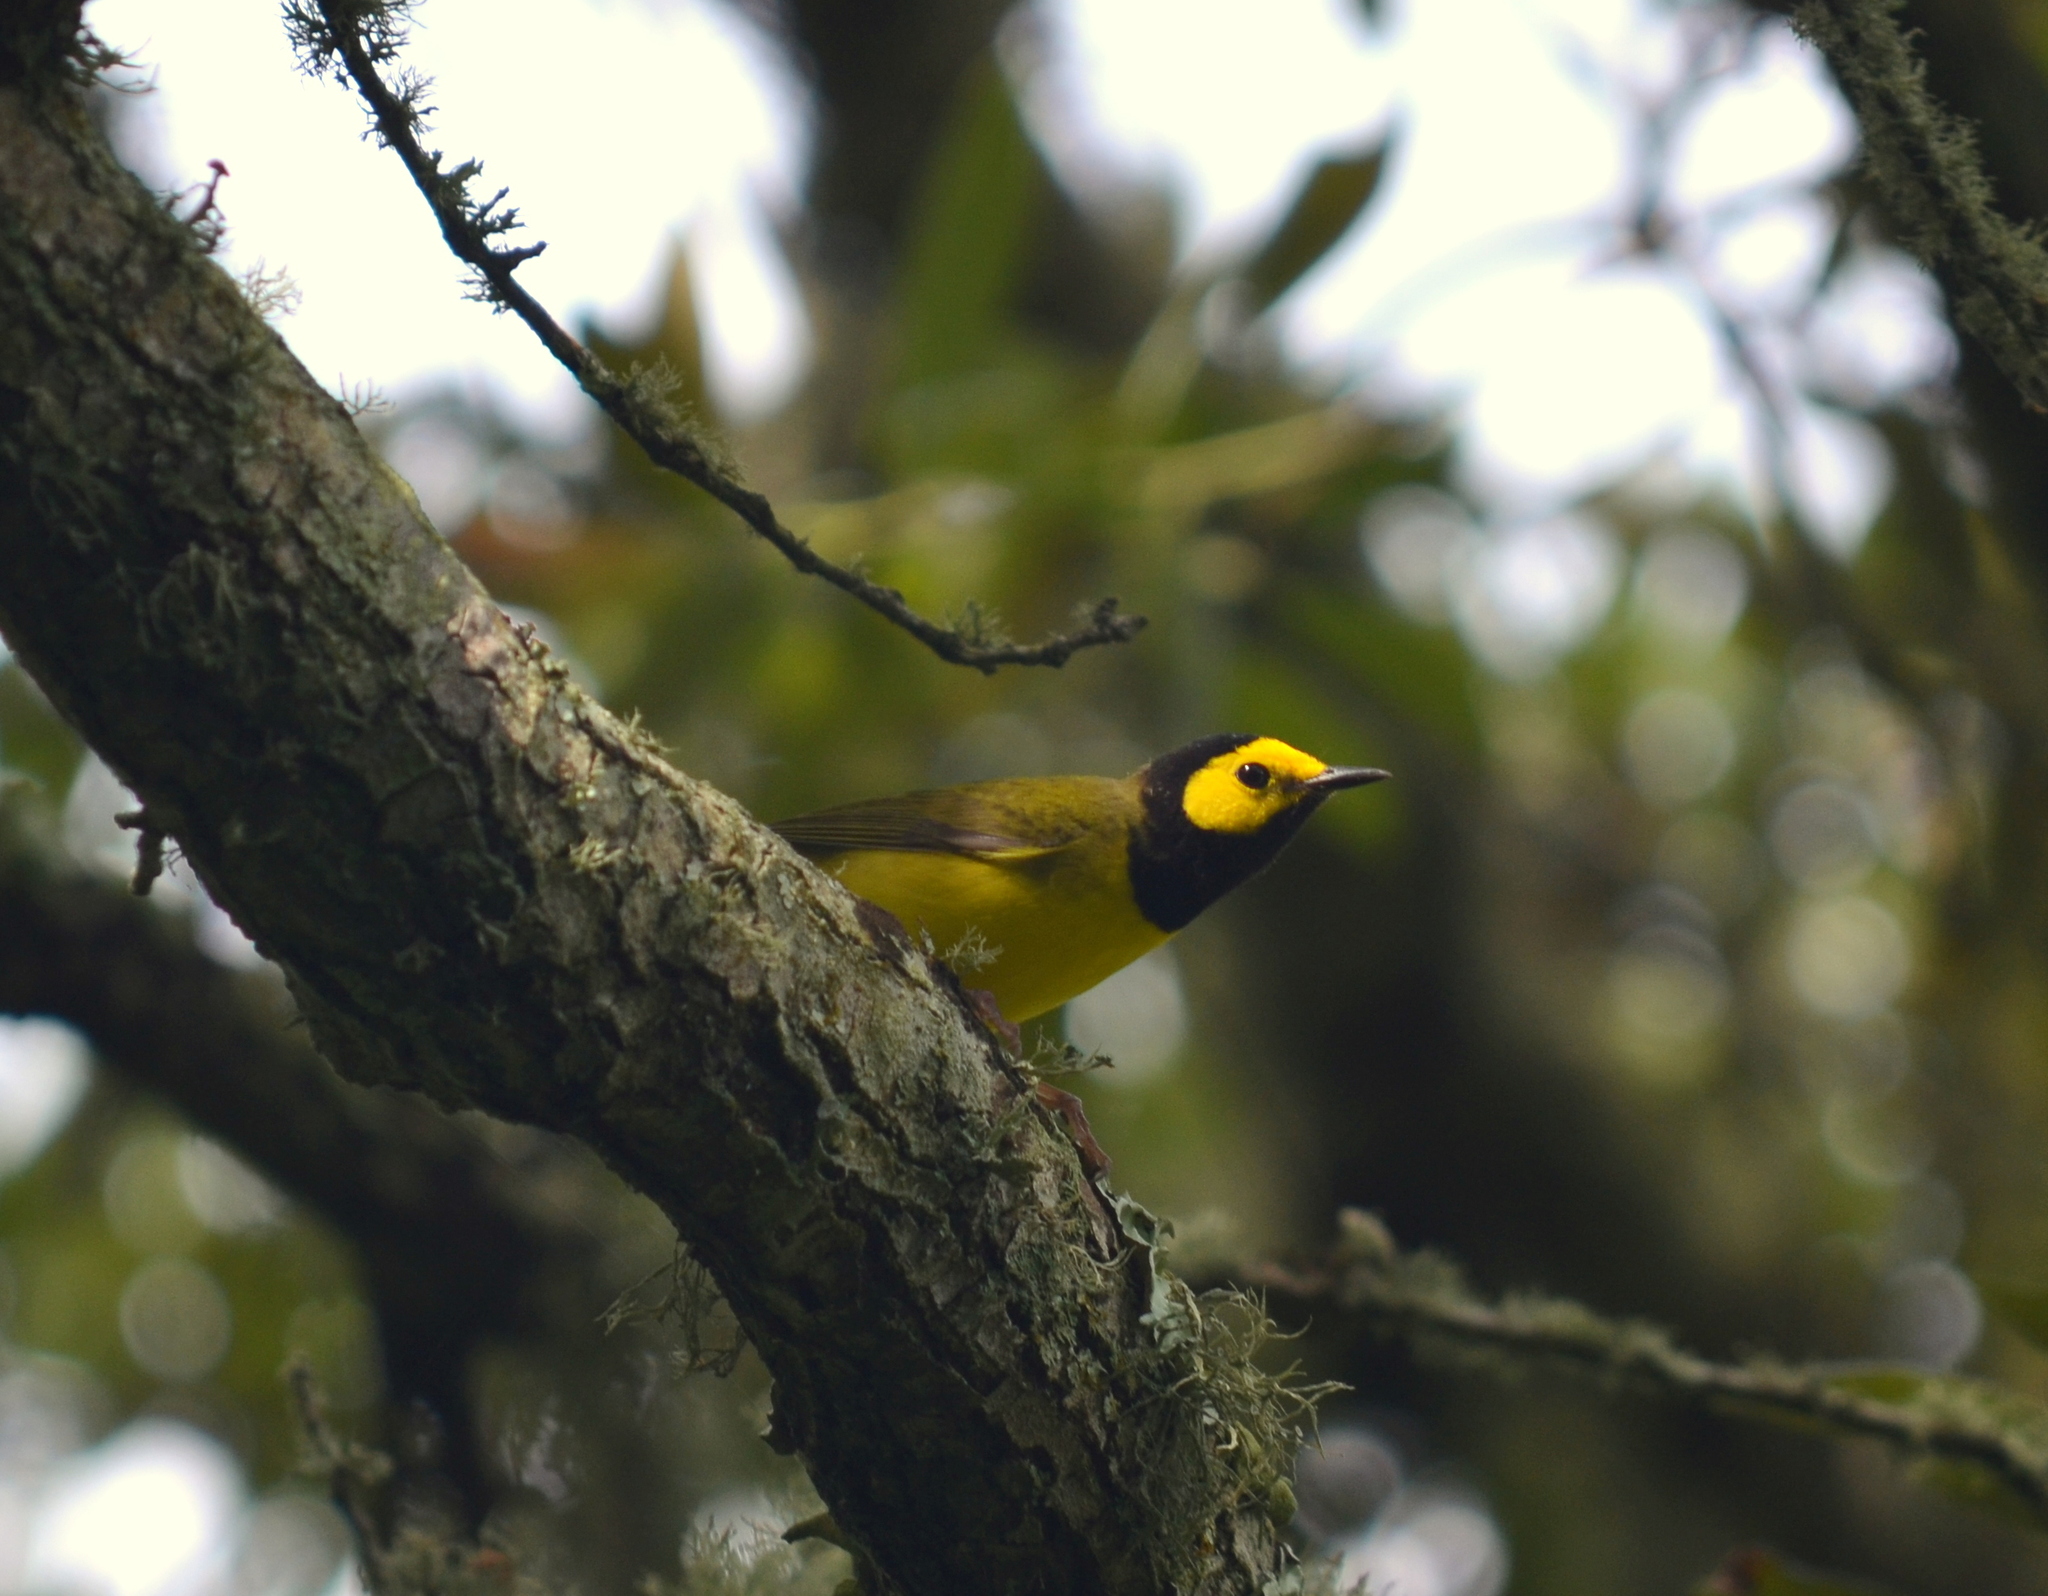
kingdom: Animalia
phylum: Chordata
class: Aves
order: Passeriformes
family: Parulidae
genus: Setophaga
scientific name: Setophaga citrina
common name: Hooded warbler
